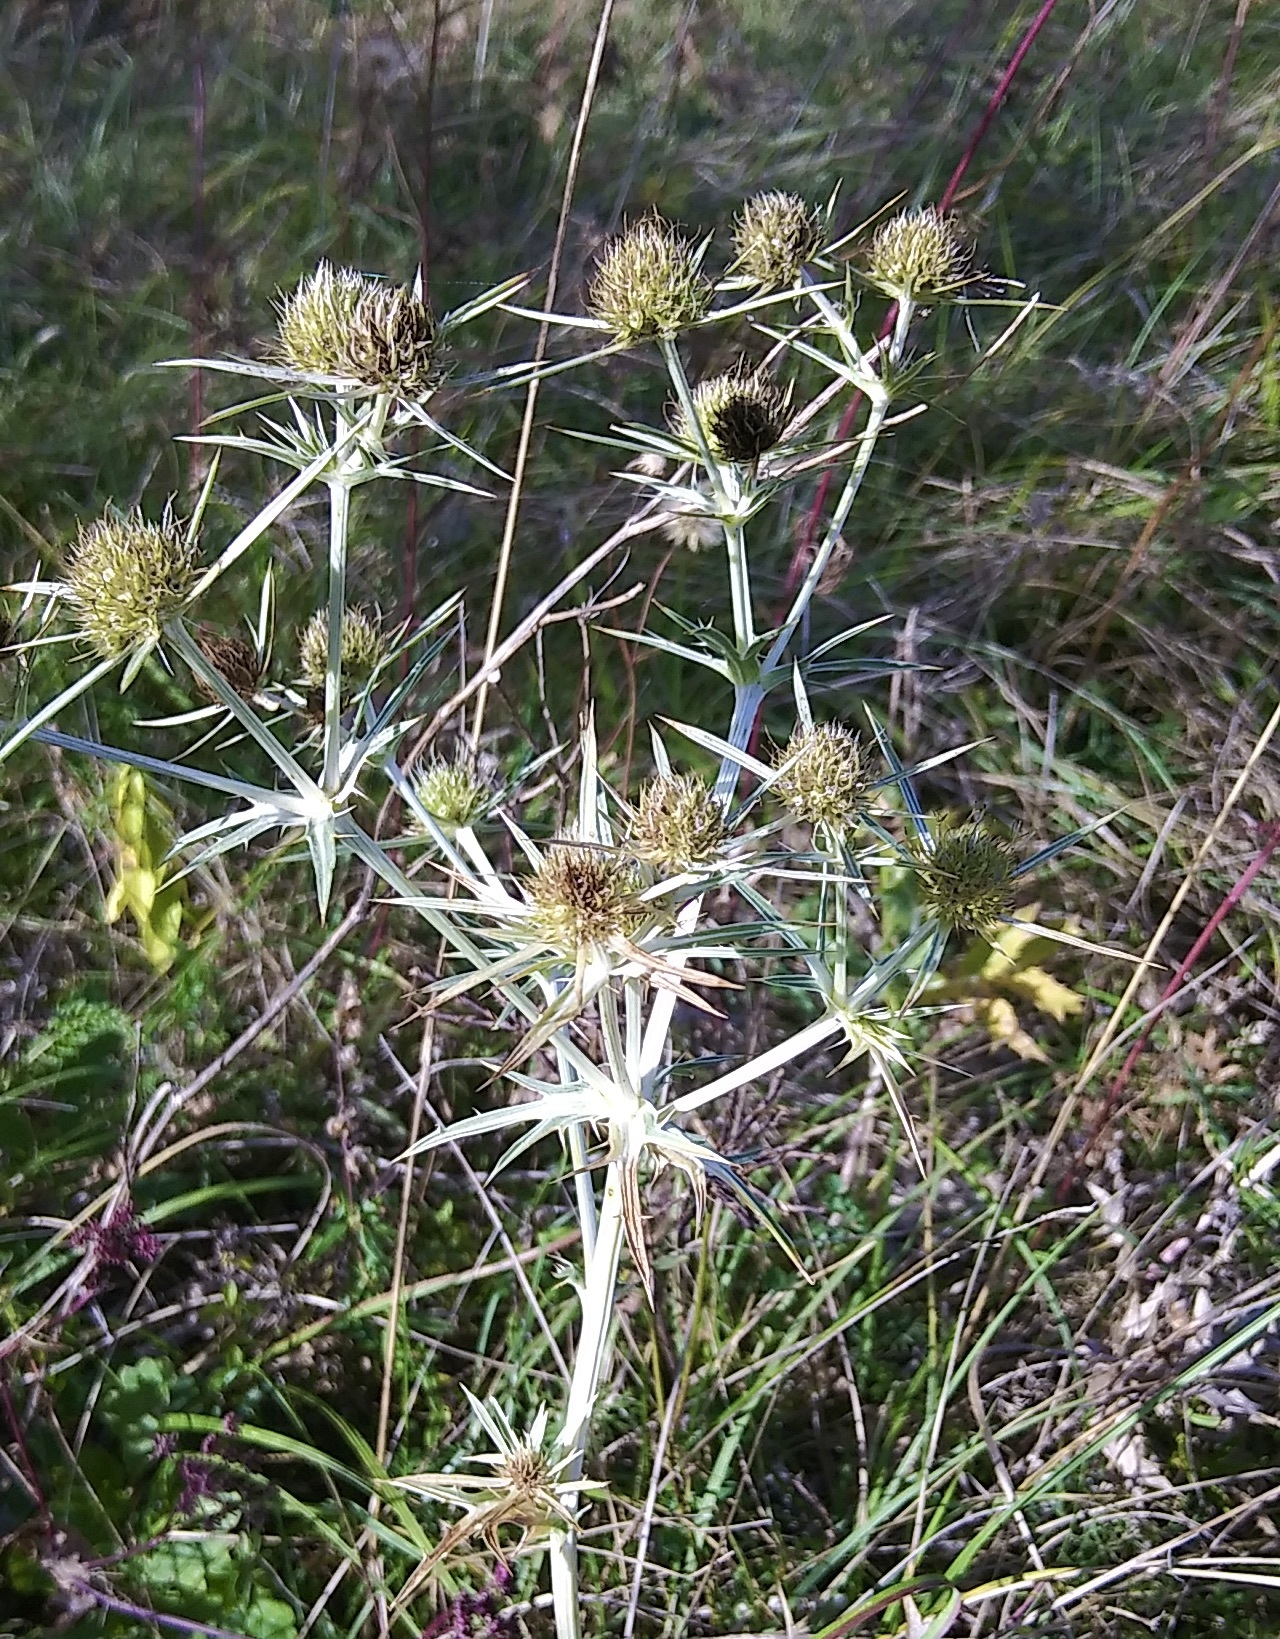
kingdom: Plantae
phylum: Tracheophyta
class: Magnoliopsida
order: Apiales
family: Apiaceae
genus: Eryngium
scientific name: Eryngium campestre
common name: Field eryngo
